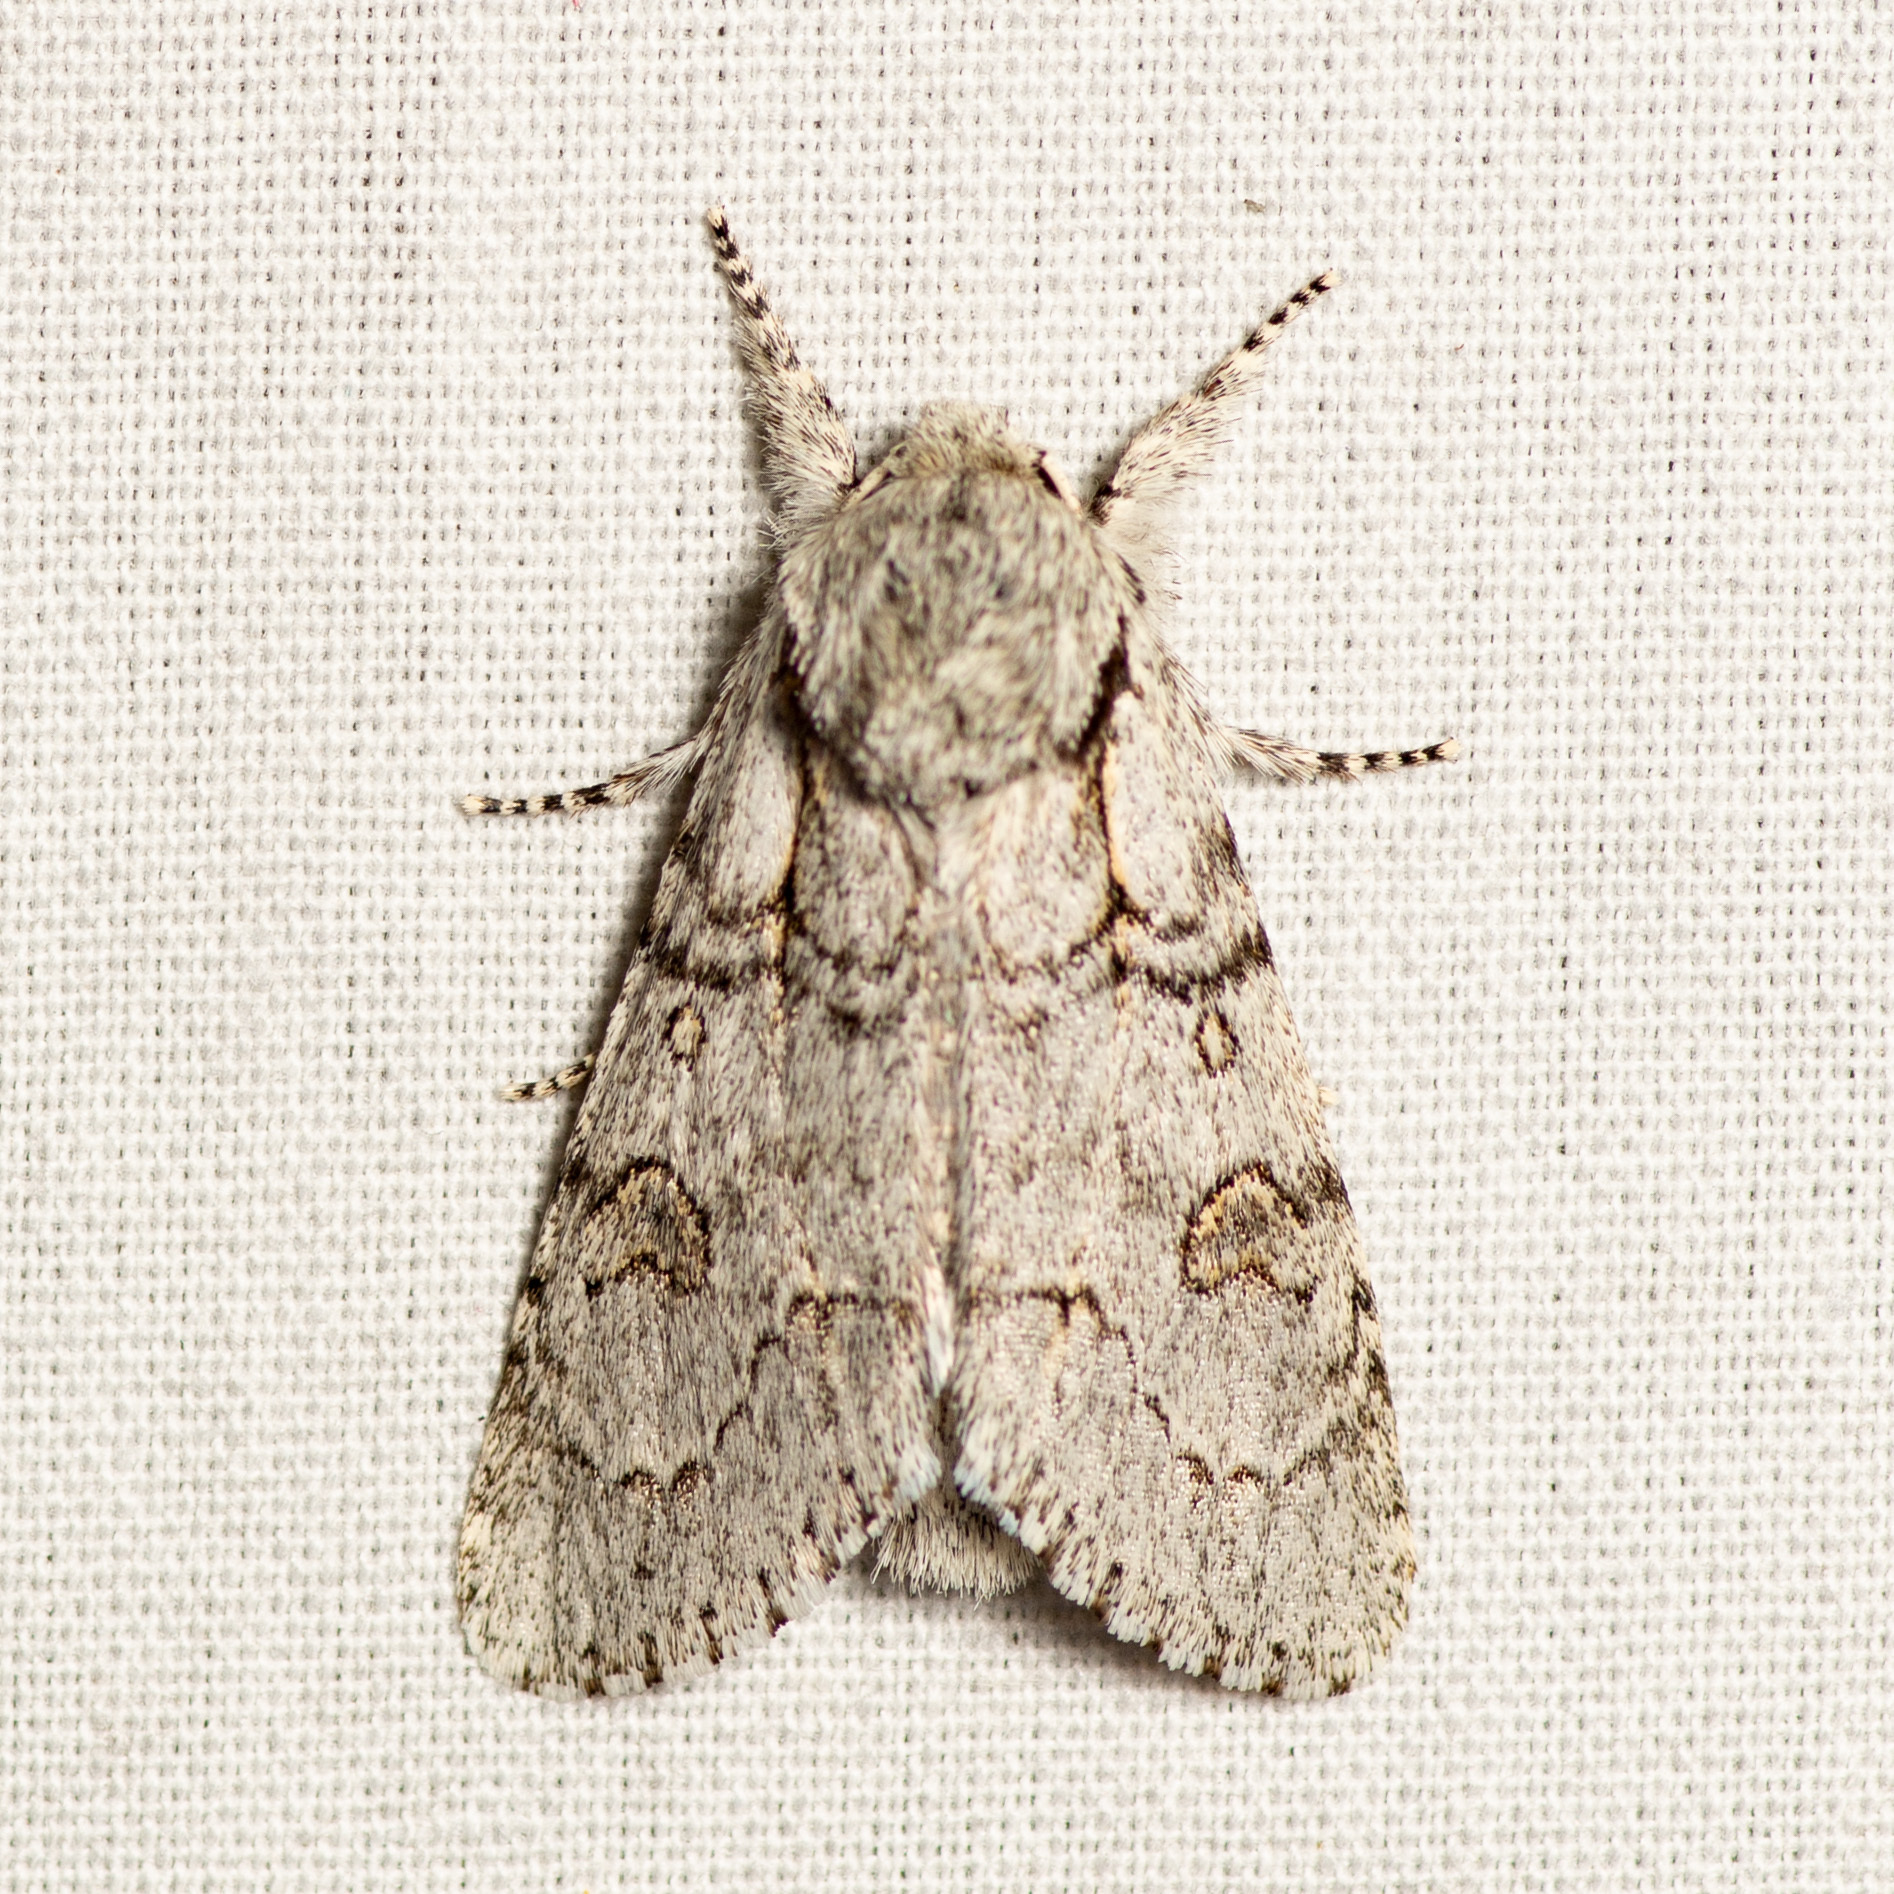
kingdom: Animalia
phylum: Arthropoda
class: Insecta
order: Lepidoptera
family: Noctuidae
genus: Acronicta
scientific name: Acronicta tota
